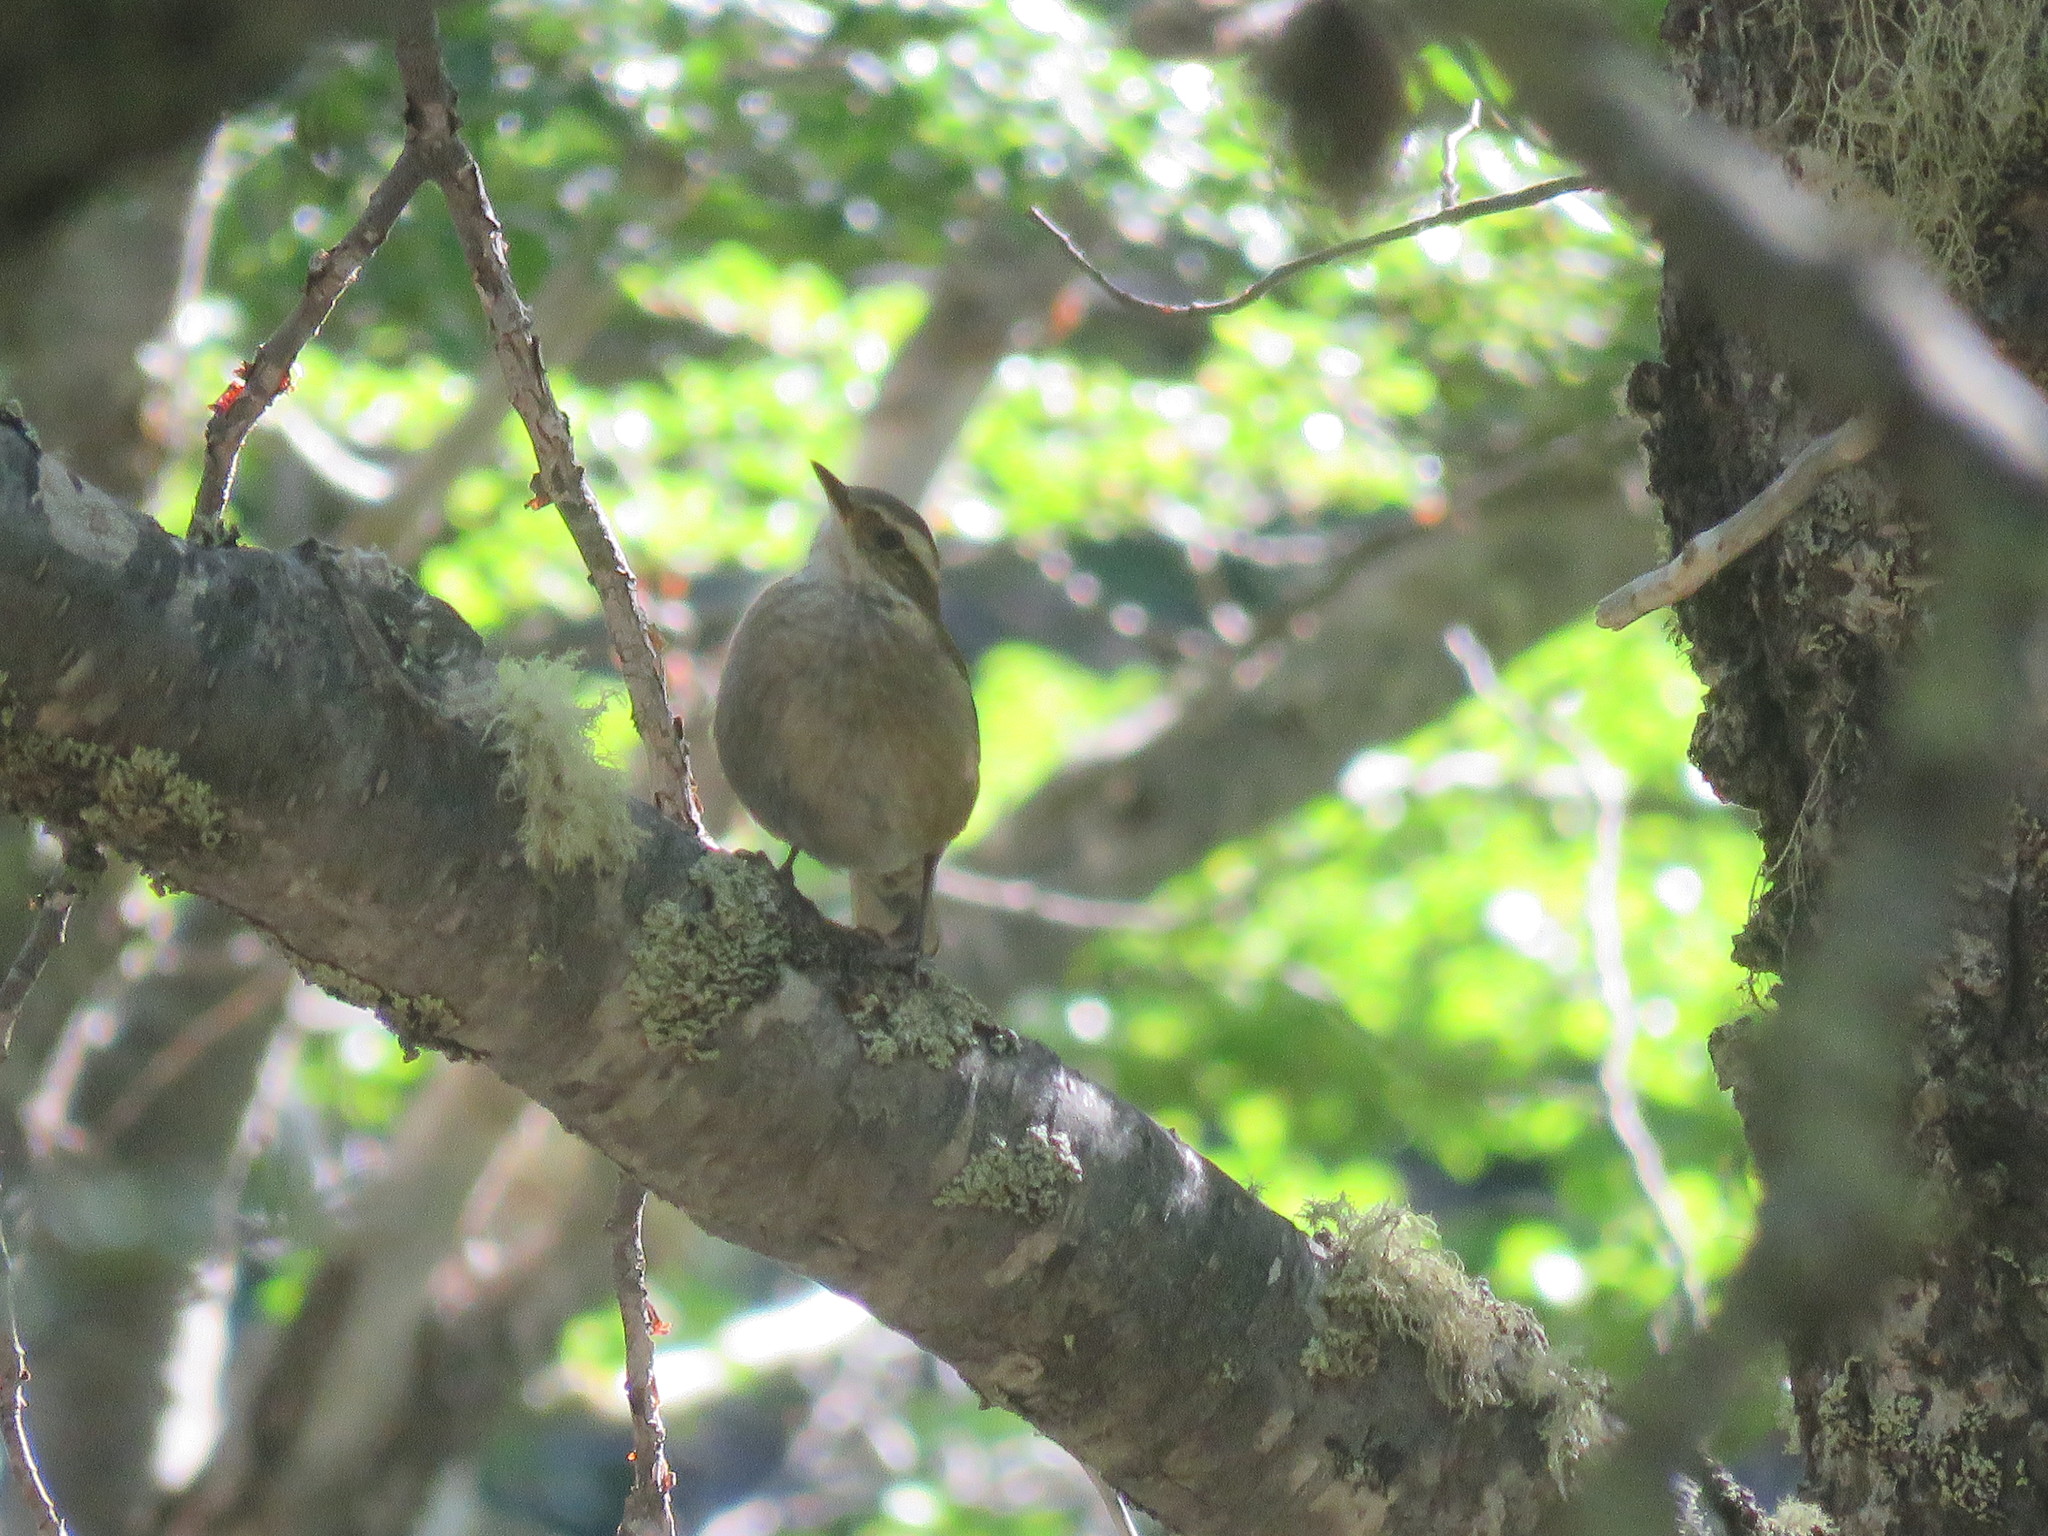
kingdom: Animalia
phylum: Chordata
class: Aves
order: Passeriformes
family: Furnariidae
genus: Cinclodes
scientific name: Cinclodes fuscus
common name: Buff-winged cinclodes
